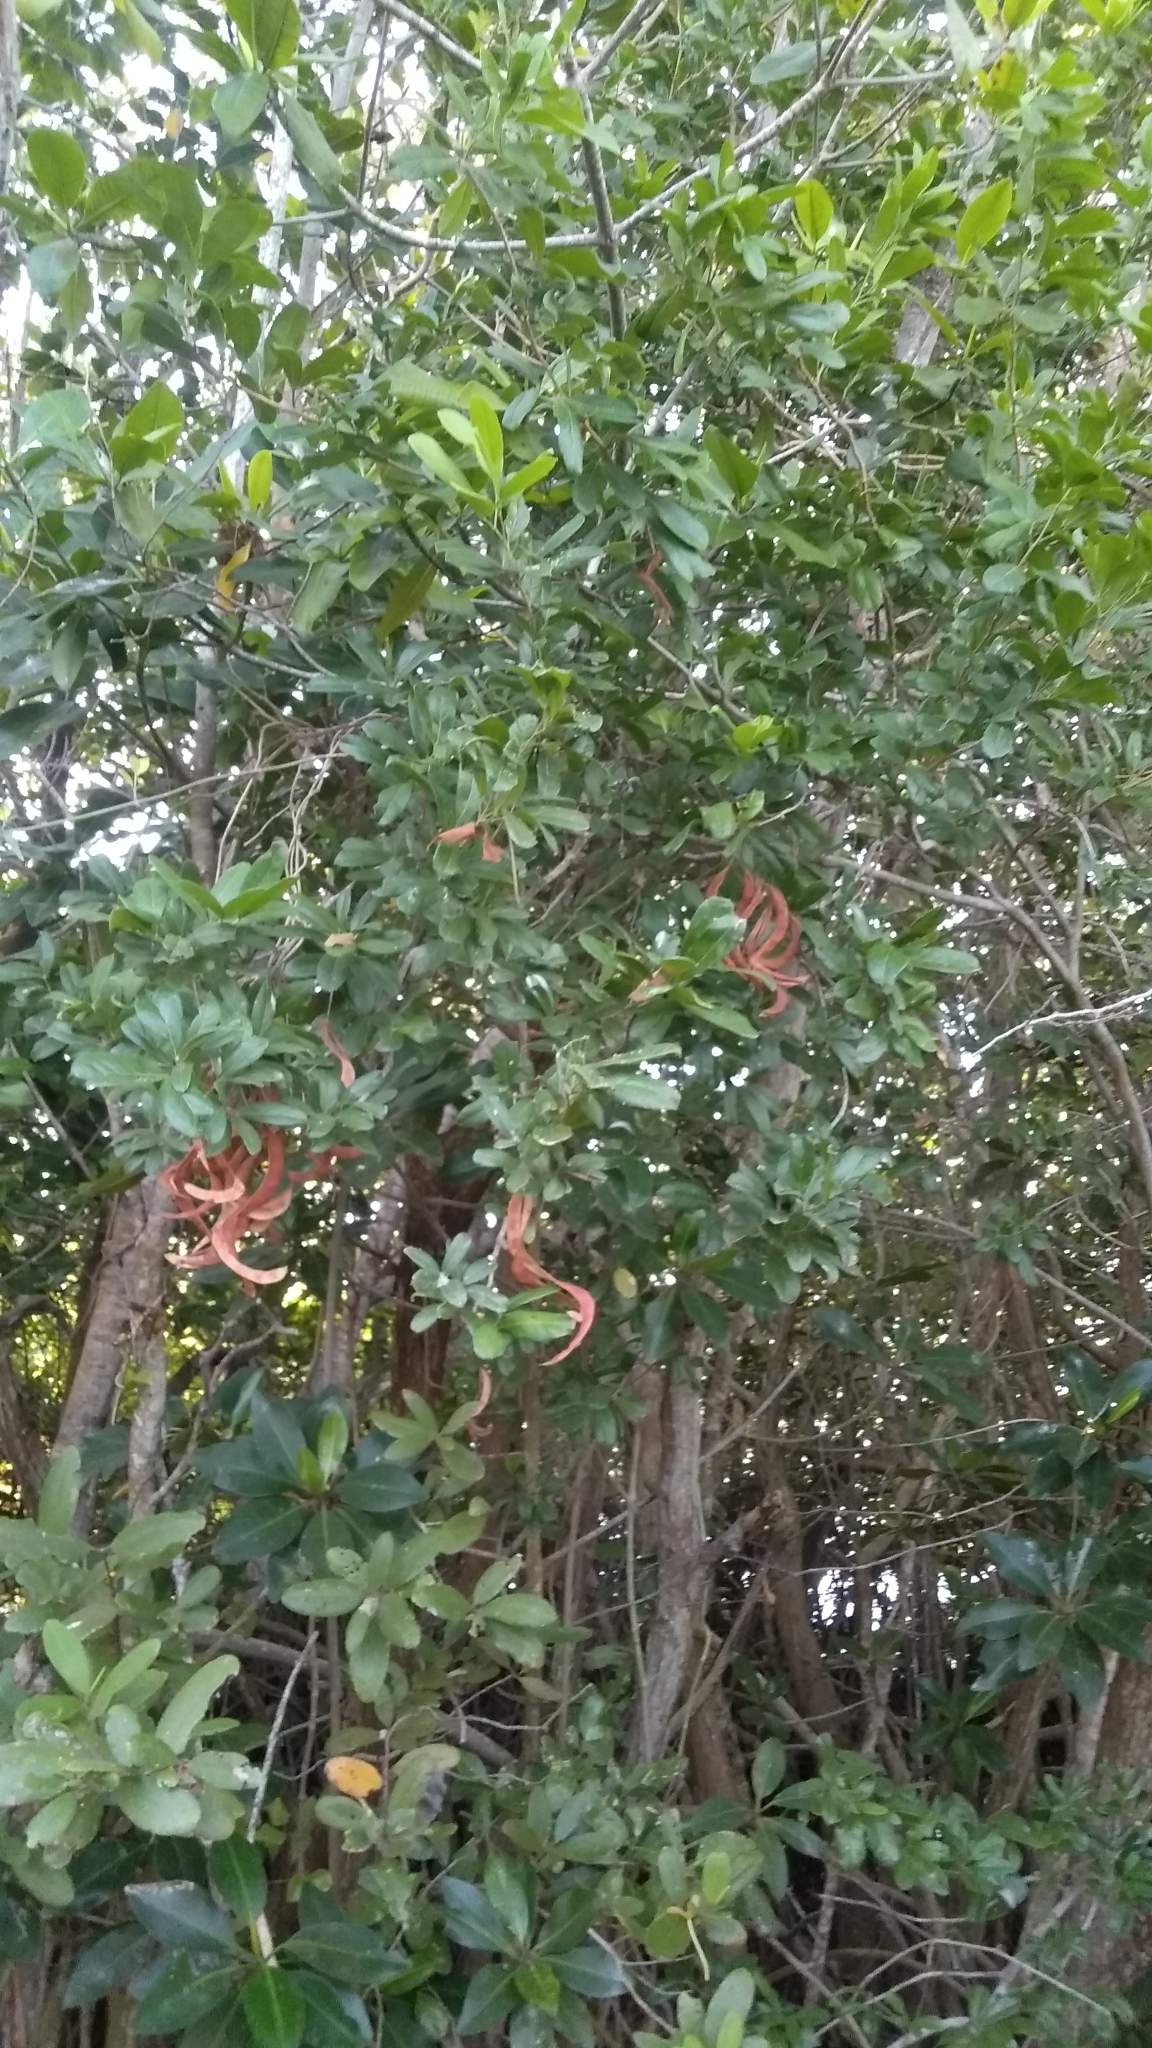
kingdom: Plantae
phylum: Tracheophyta
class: Magnoliopsida
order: Fabales
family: Fabaceae
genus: Pithecellobium
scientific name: Pithecellobium keyense
